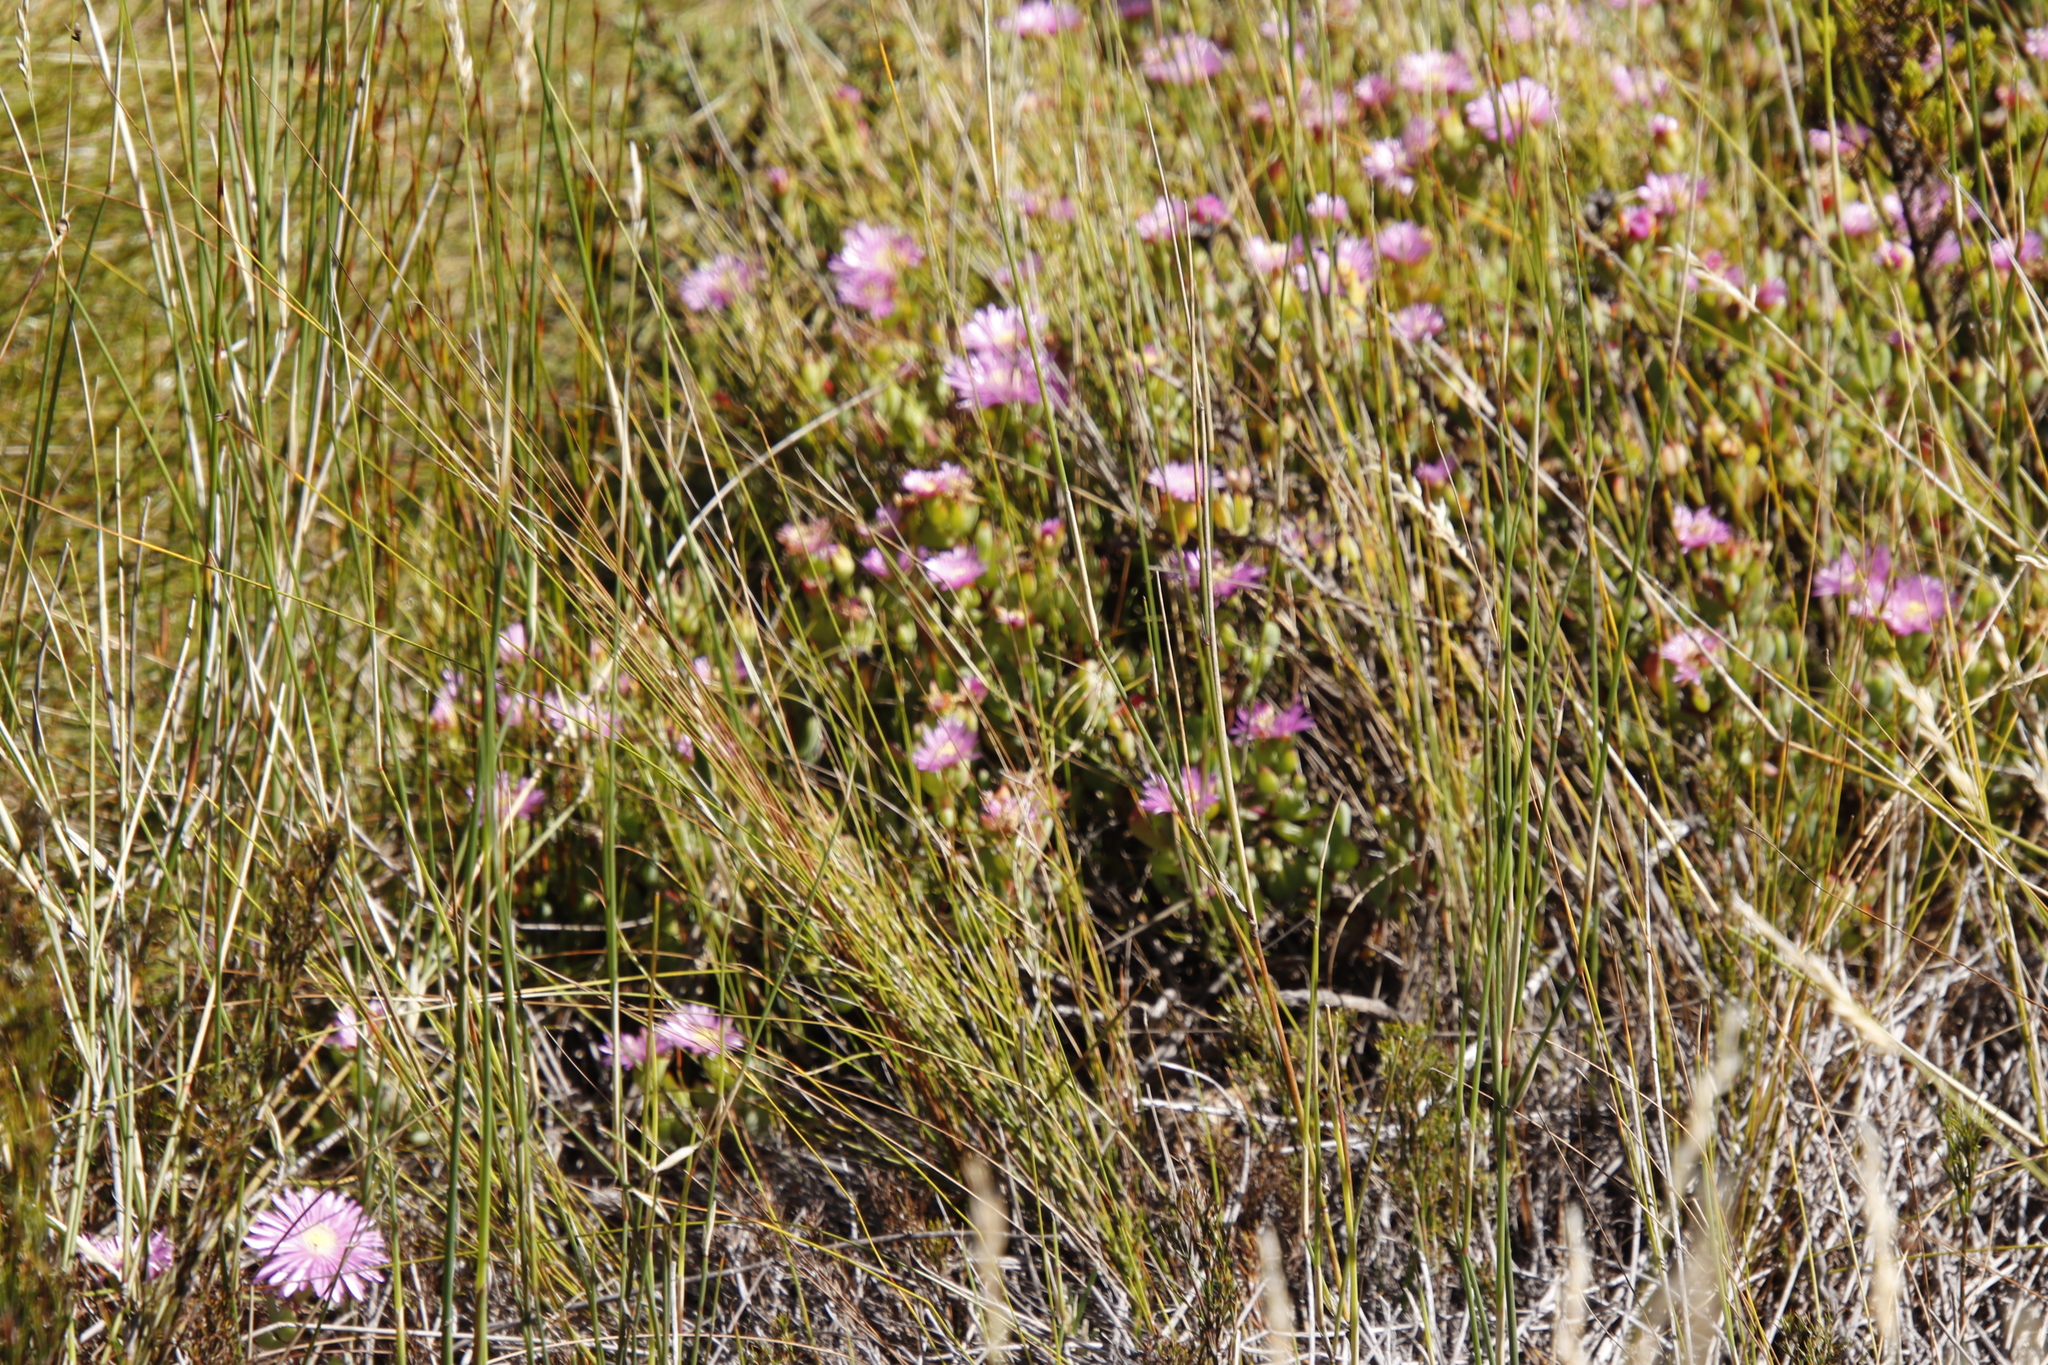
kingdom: Plantae
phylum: Tracheophyta
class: Magnoliopsida
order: Caryophyllales
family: Aizoaceae
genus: Oscularia
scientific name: Oscularia falciformis
